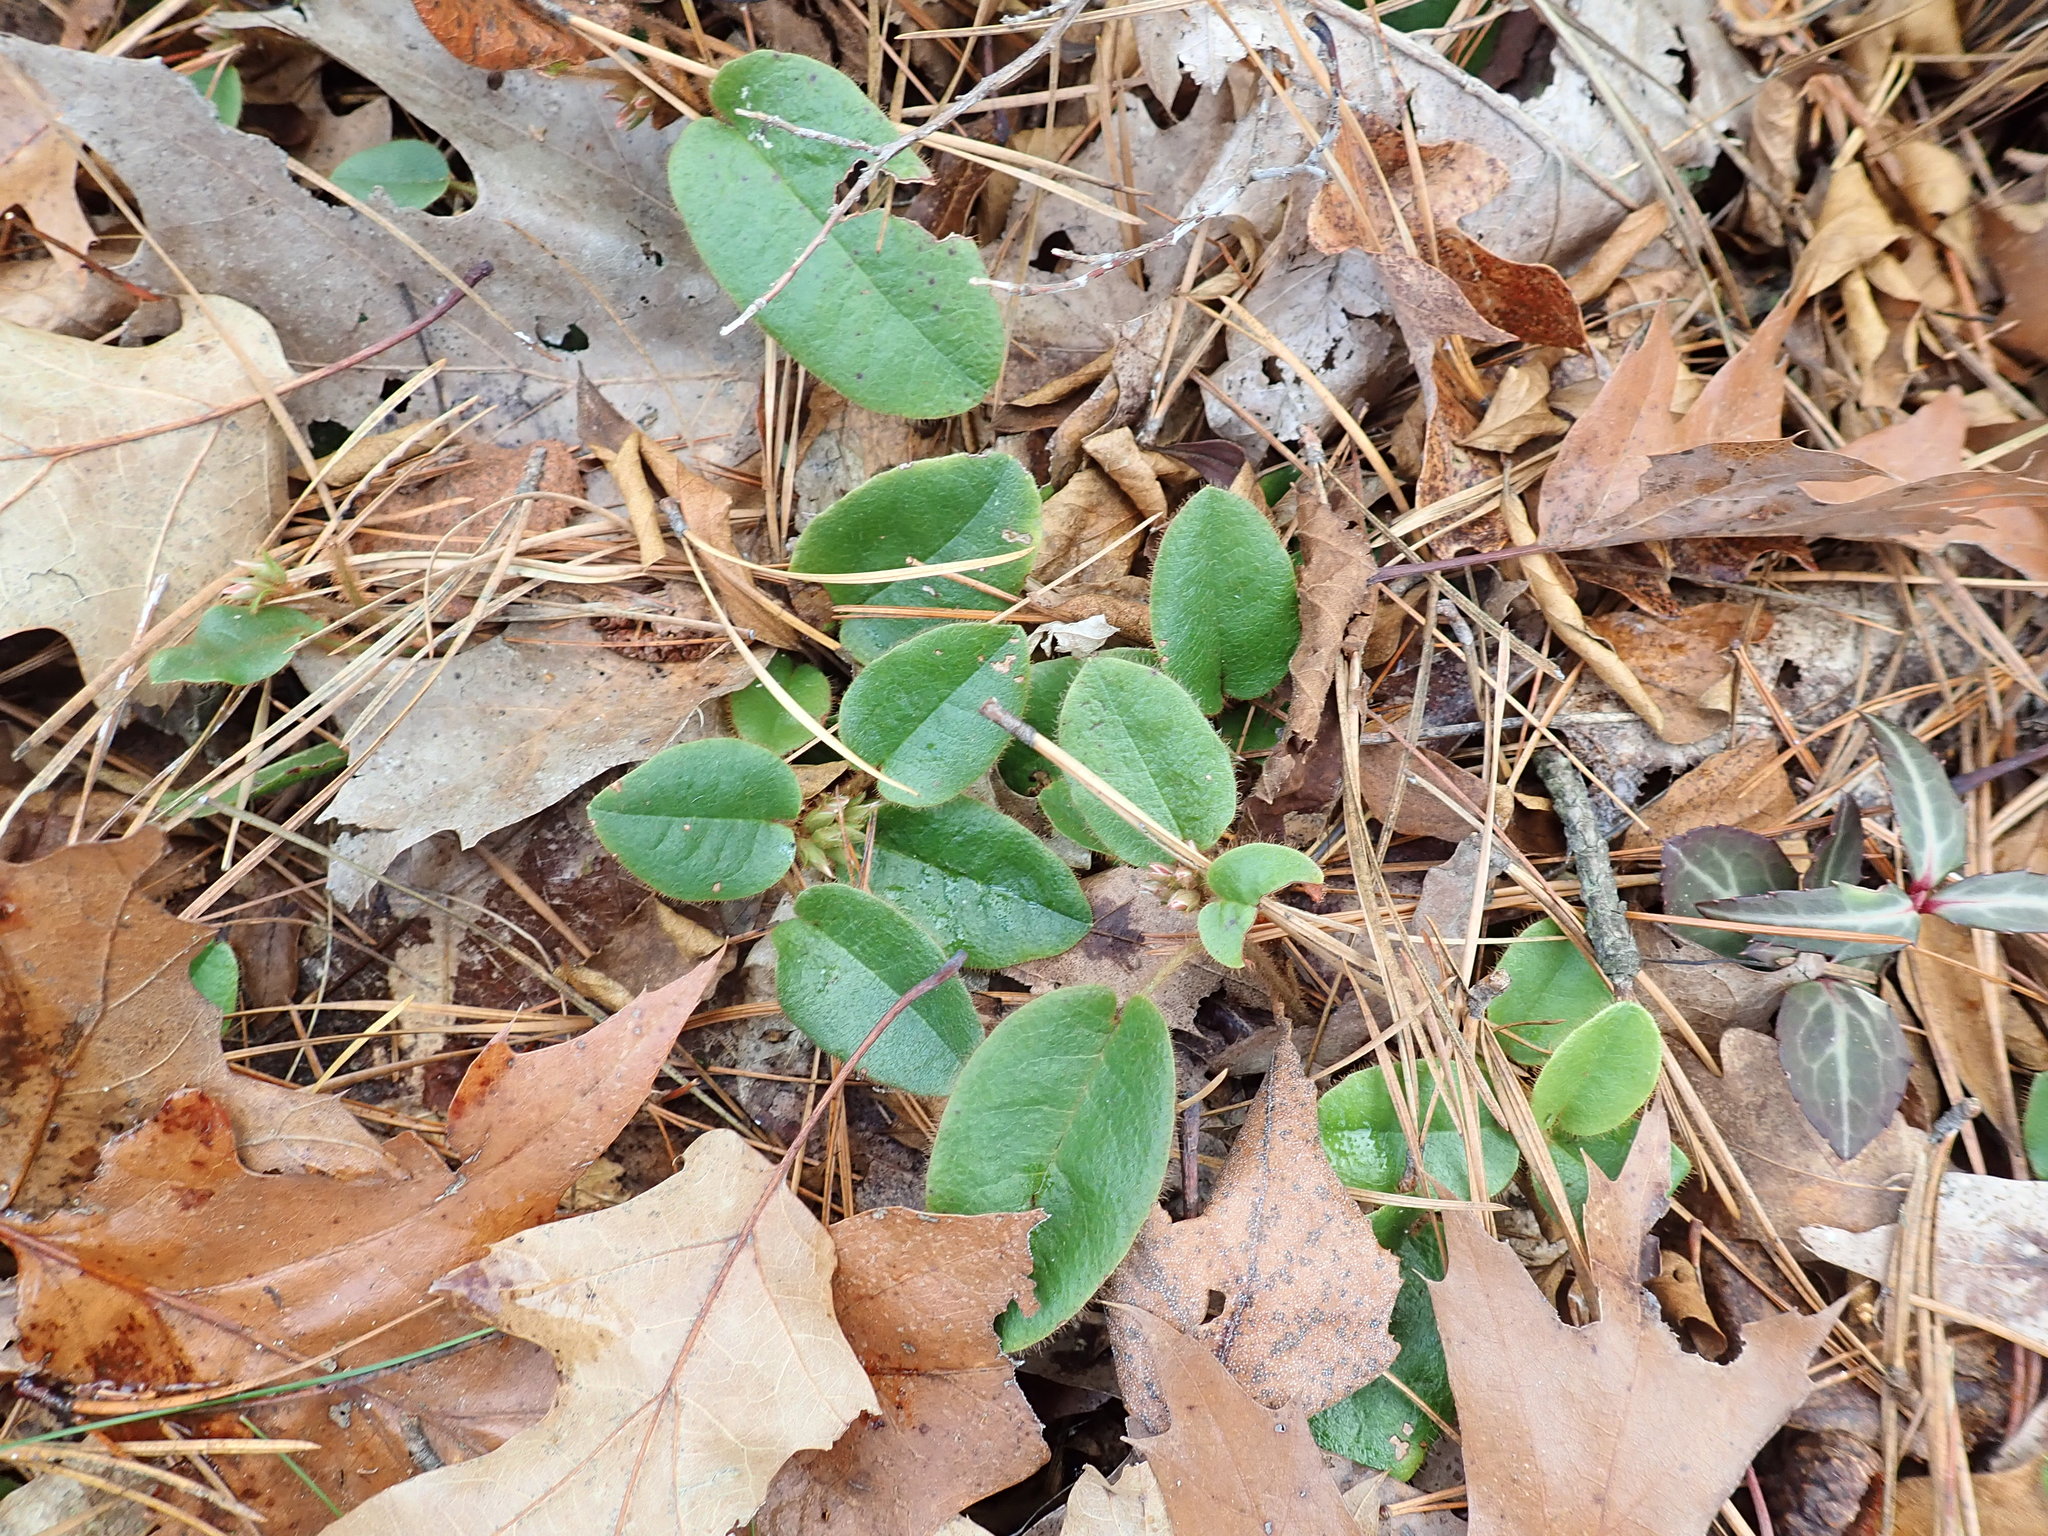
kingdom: Plantae
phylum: Tracheophyta
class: Magnoliopsida
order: Ericales
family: Ericaceae
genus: Epigaea
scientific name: Epigaea repens
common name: Gravelroot
